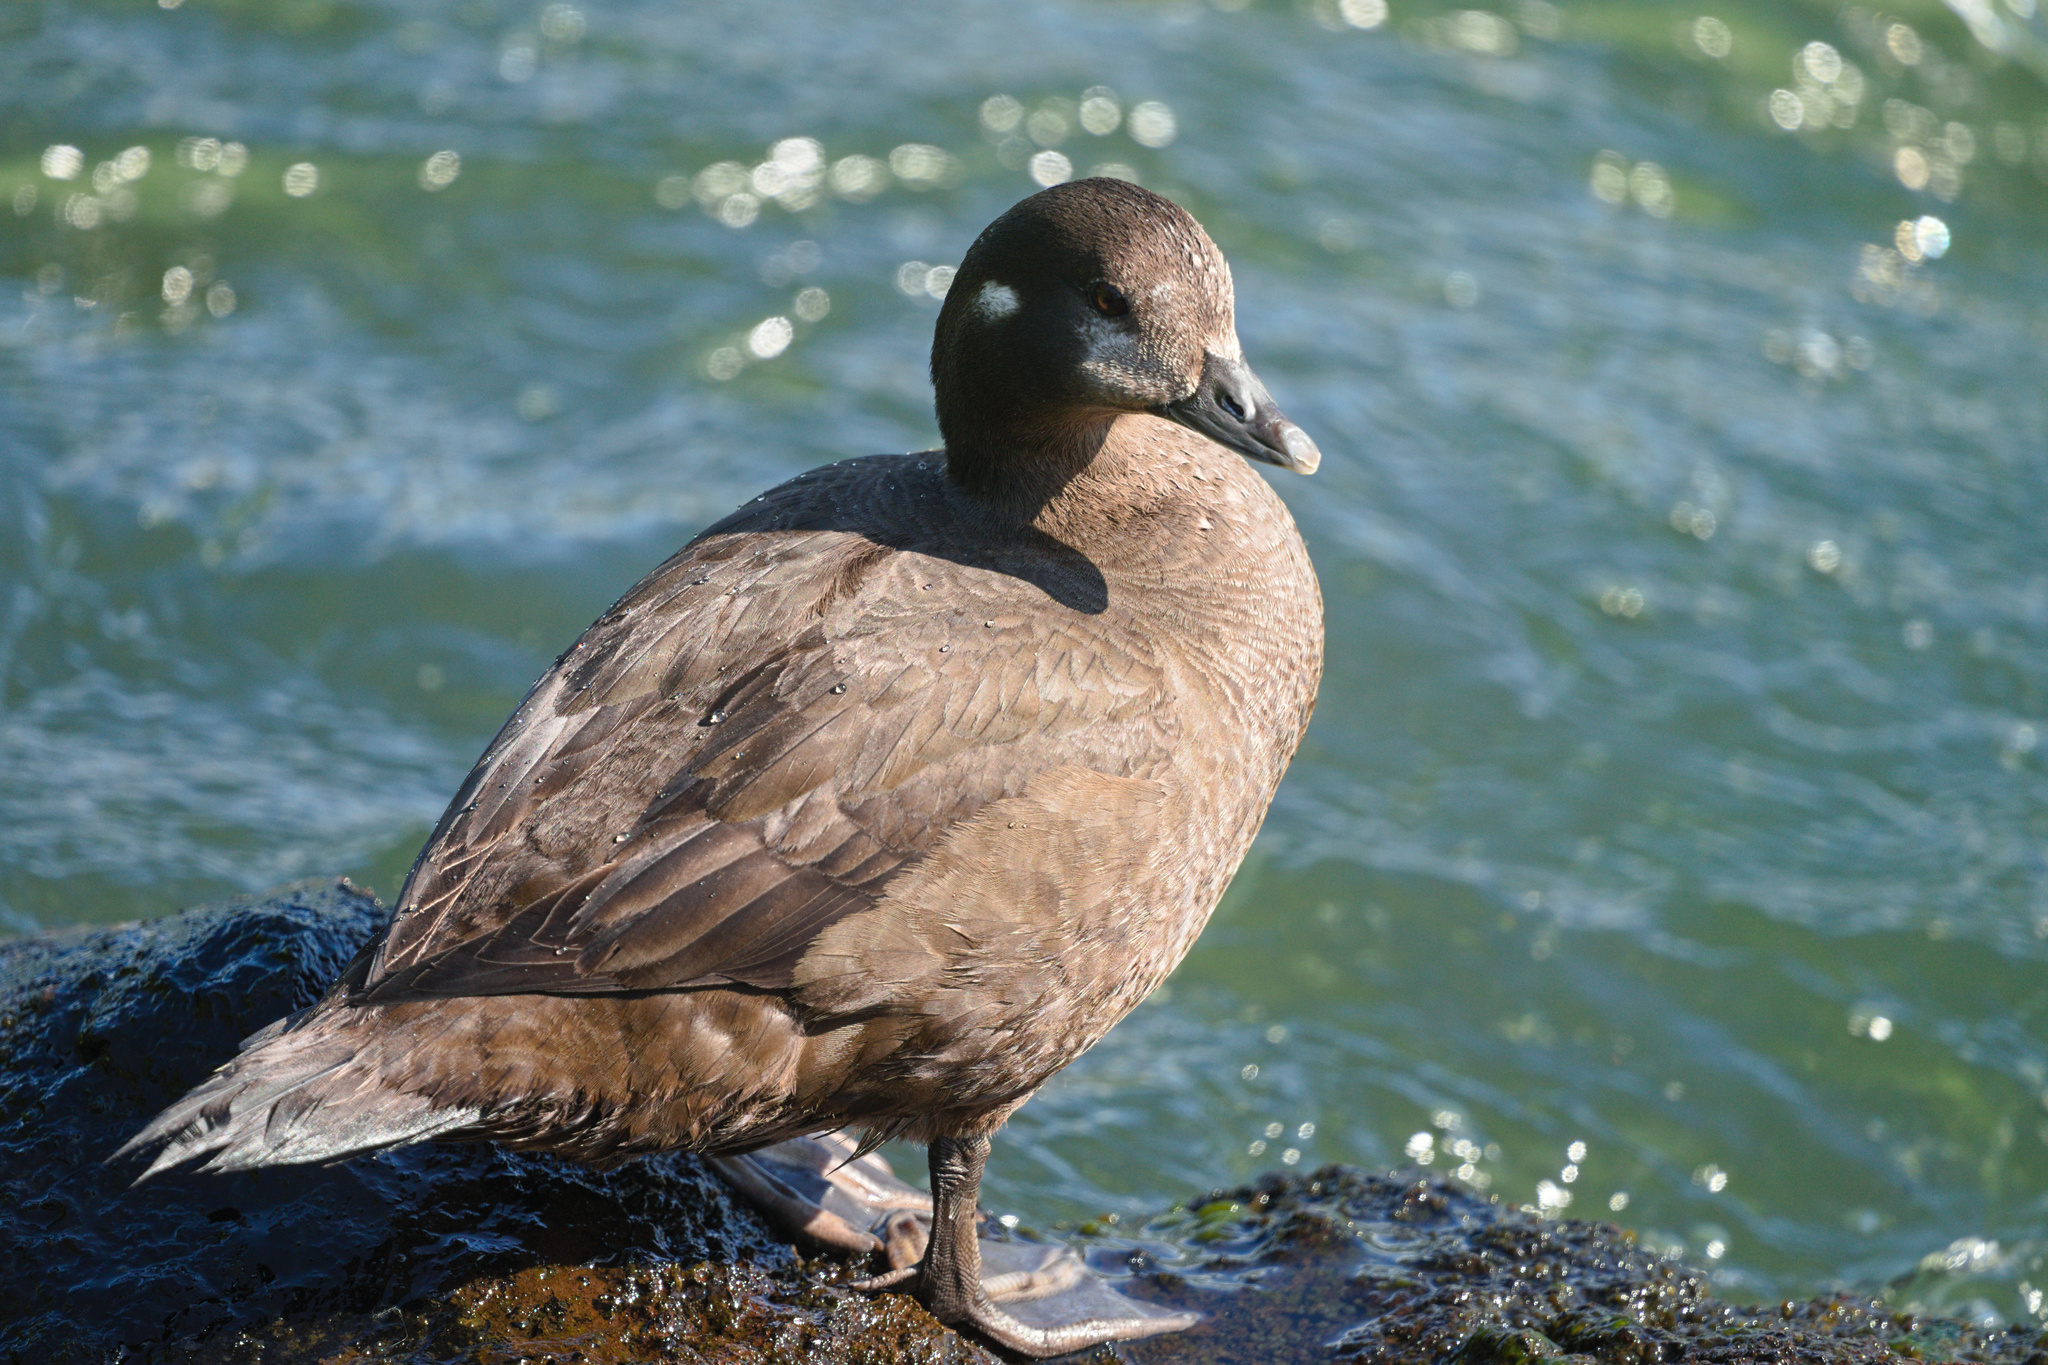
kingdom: Animalia
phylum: Chordata
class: Aves
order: Anseriformes
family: Anatidae
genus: Histrionicus
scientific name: Histrionicus histrionicus
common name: Harlequin duck
